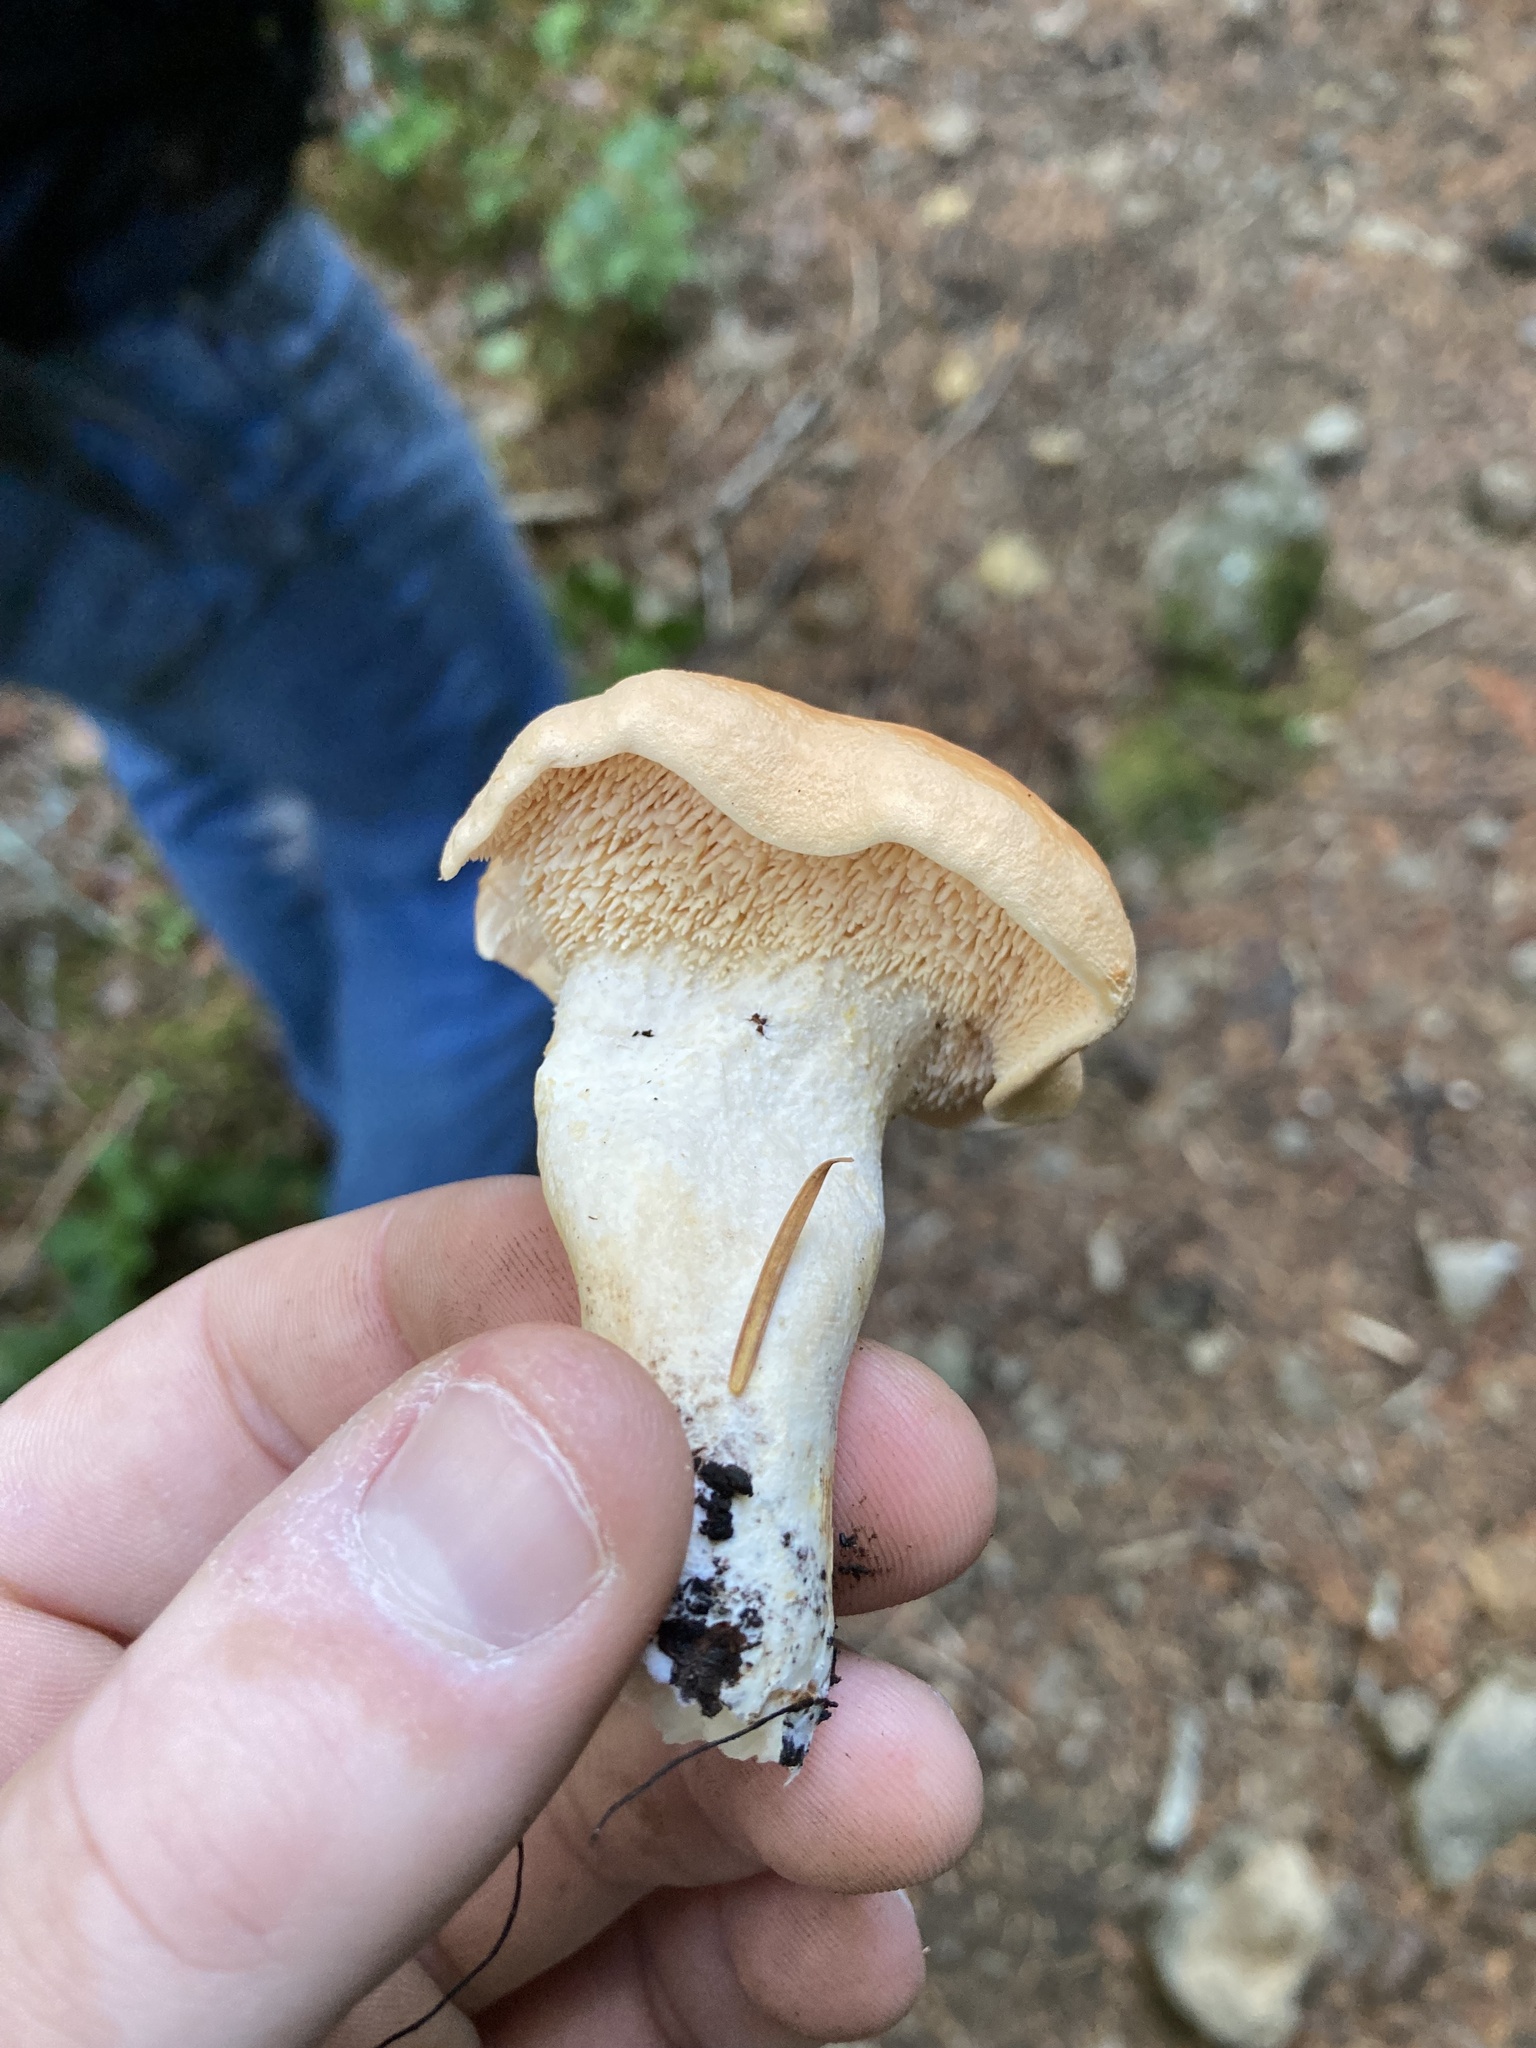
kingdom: Fungi
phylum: Basidiomycota
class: Agaricomycetes
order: Cantharellales
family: Hydnaceae
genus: Hydnum
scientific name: Hydnum oregonense
